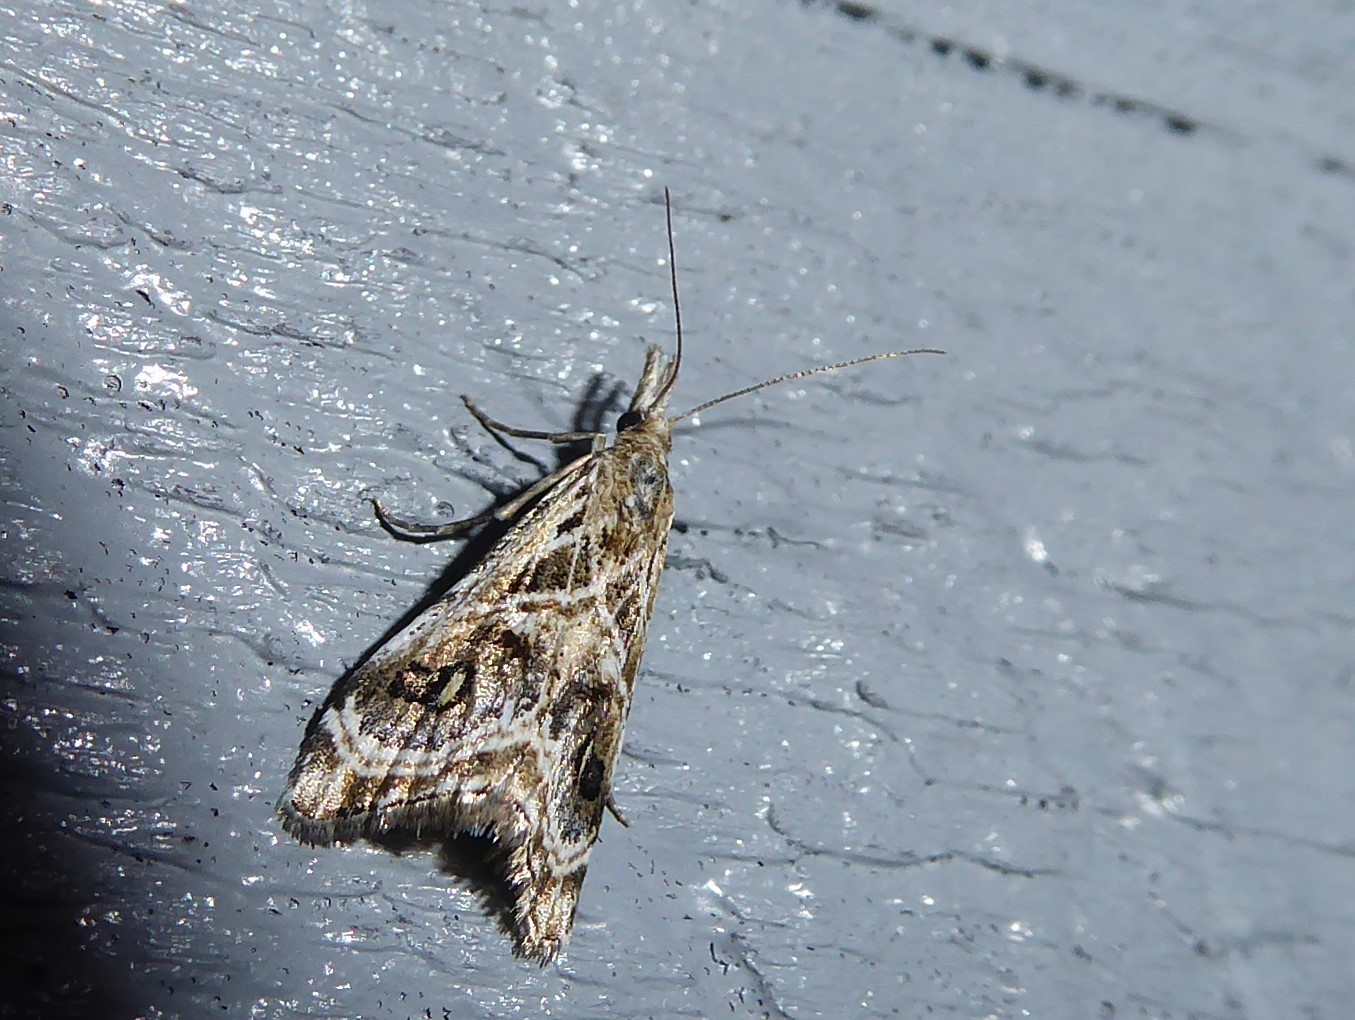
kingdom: Animalia
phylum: Arthropoda
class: Insecta
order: Lepidoptera
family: Crambidae
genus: Gadira
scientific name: Gadira acerella
